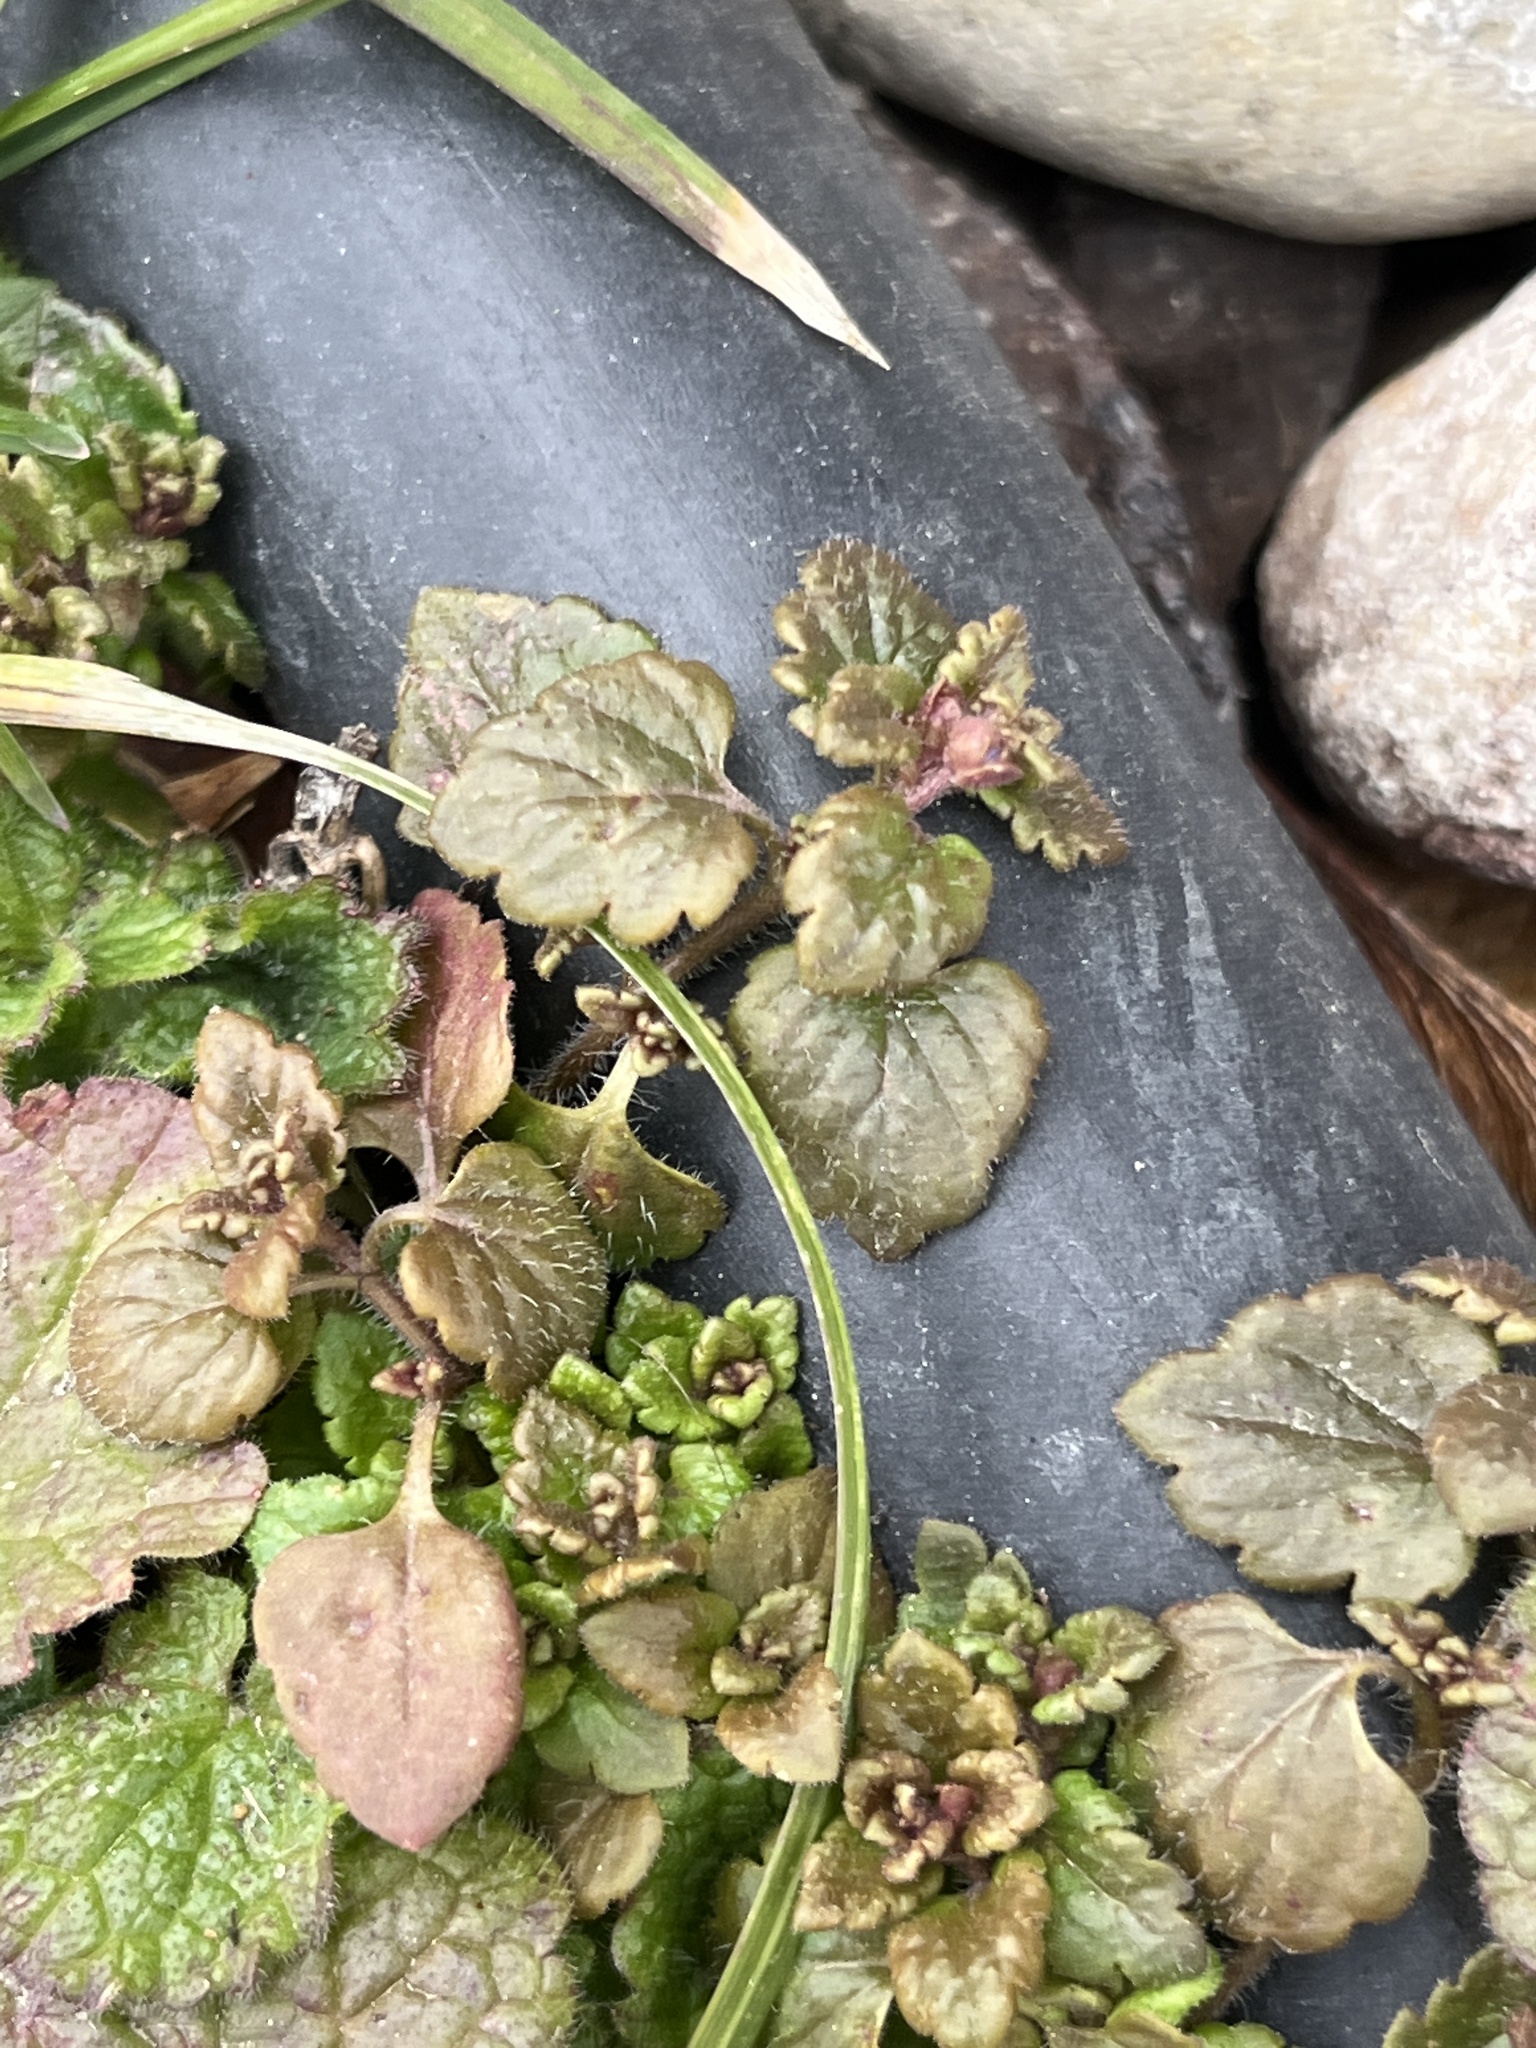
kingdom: Plantae
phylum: Tracheophyta
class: Magnoliopsida
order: Lamiales
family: Plantaginaceae
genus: Veronica
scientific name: Veronica persica
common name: Common field-speedwell
